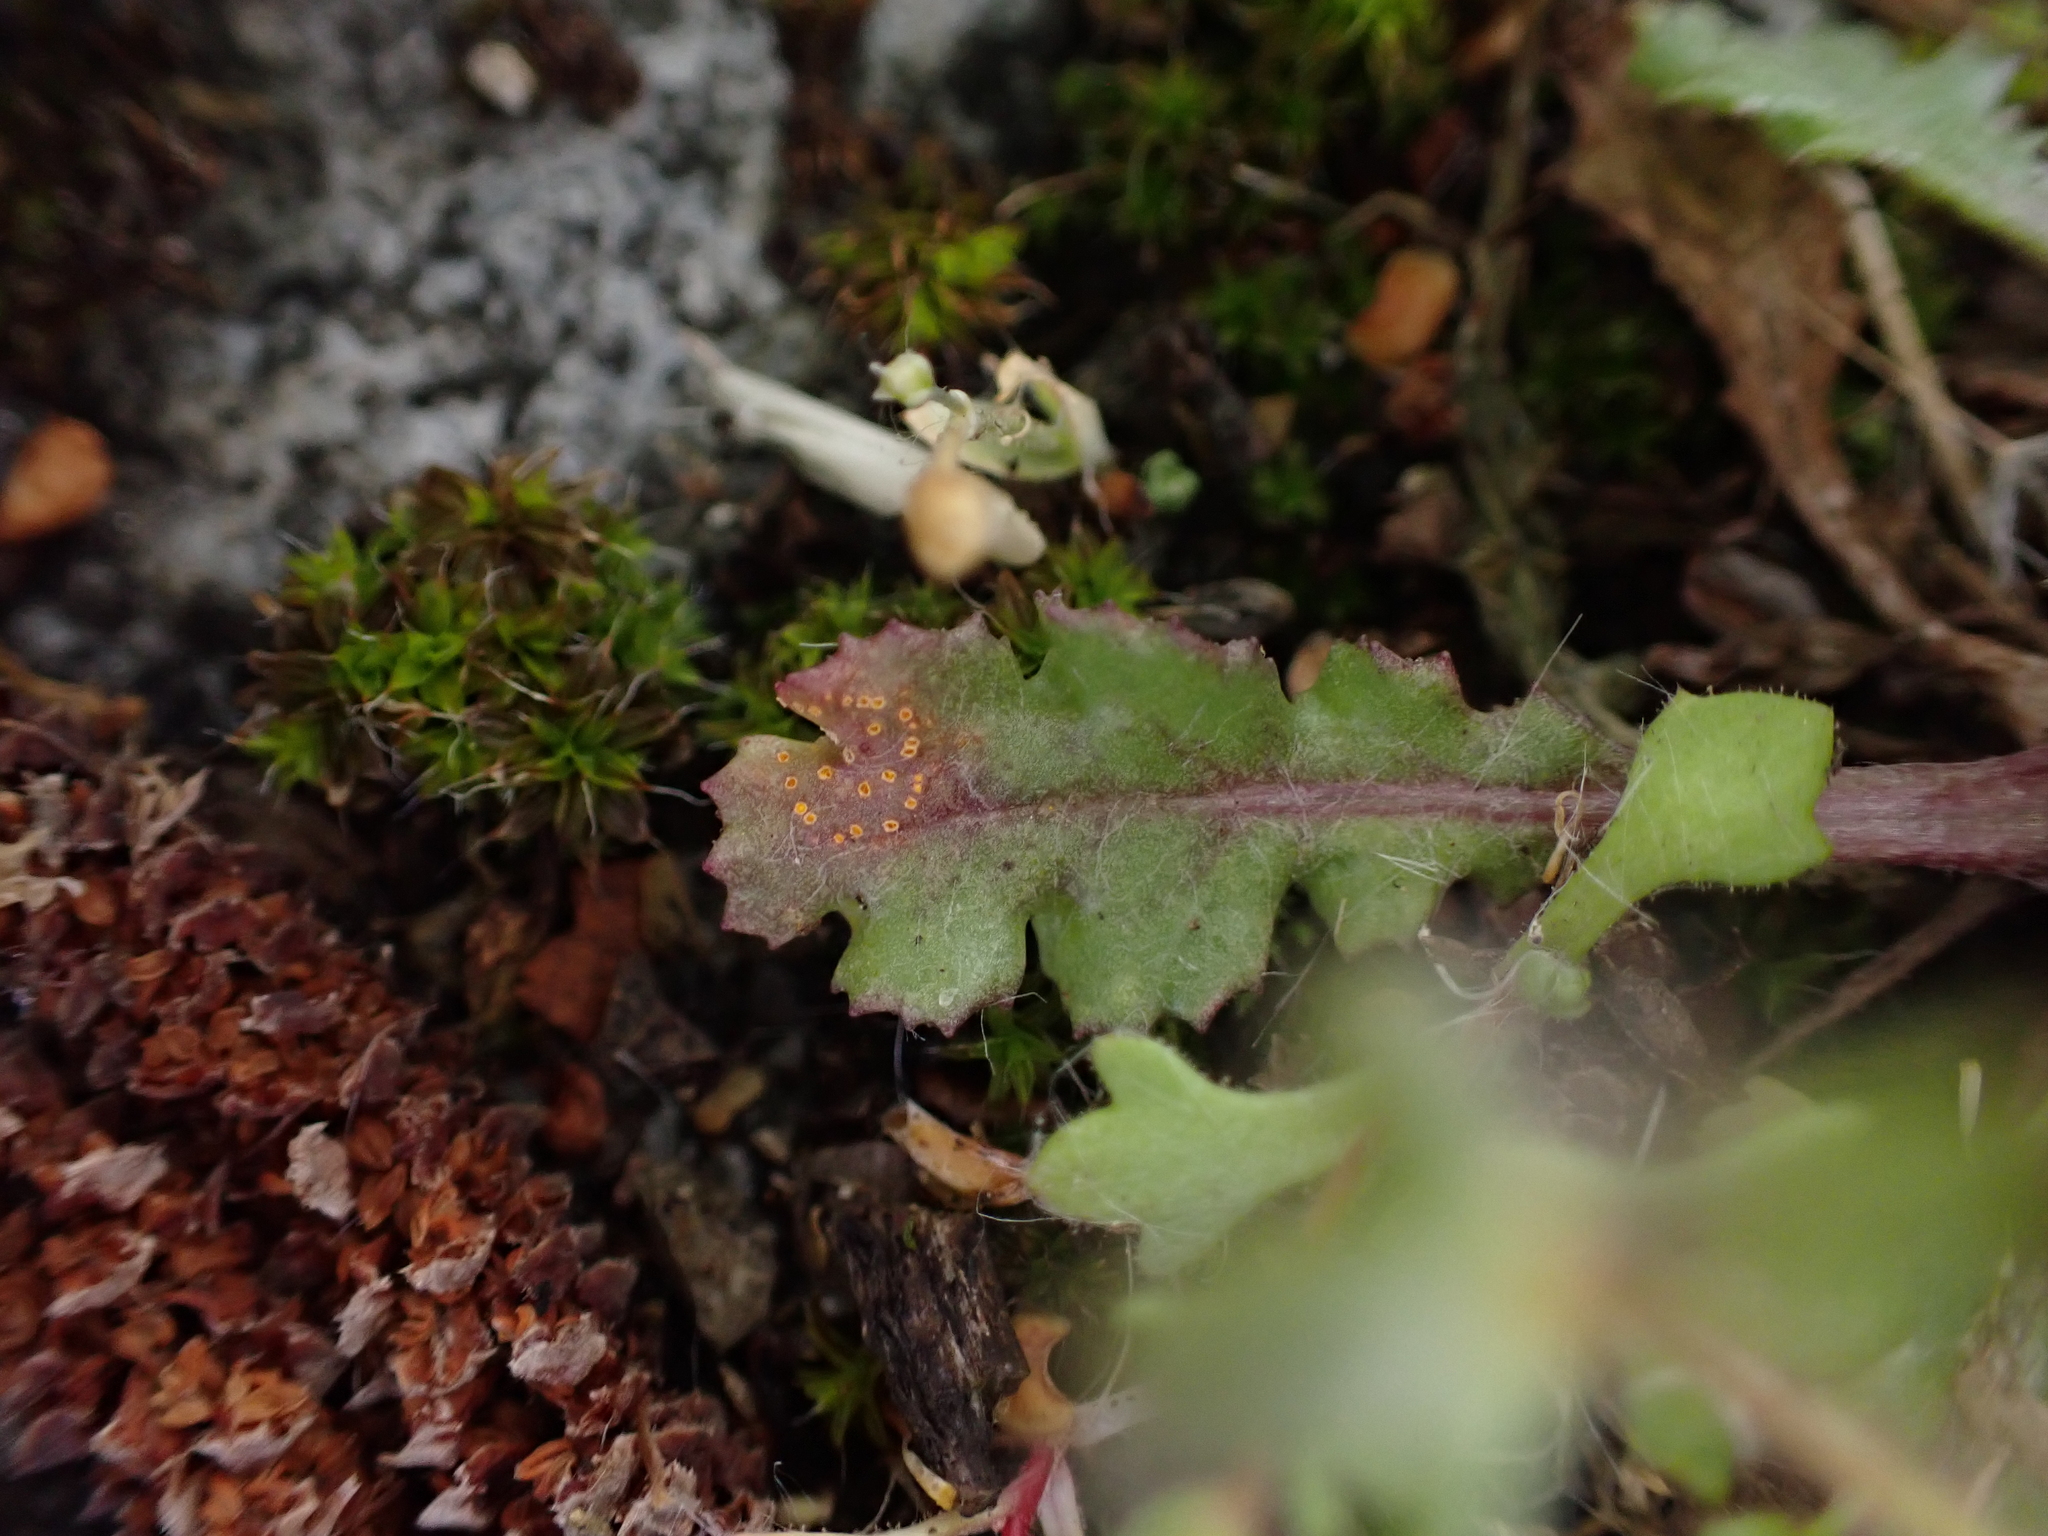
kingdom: Fungi
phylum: Basidiomycota
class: Pucciniomycetes
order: Pucciniales
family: Pucciniaceae
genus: Puccinia
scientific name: Puccinia lagenophorae
